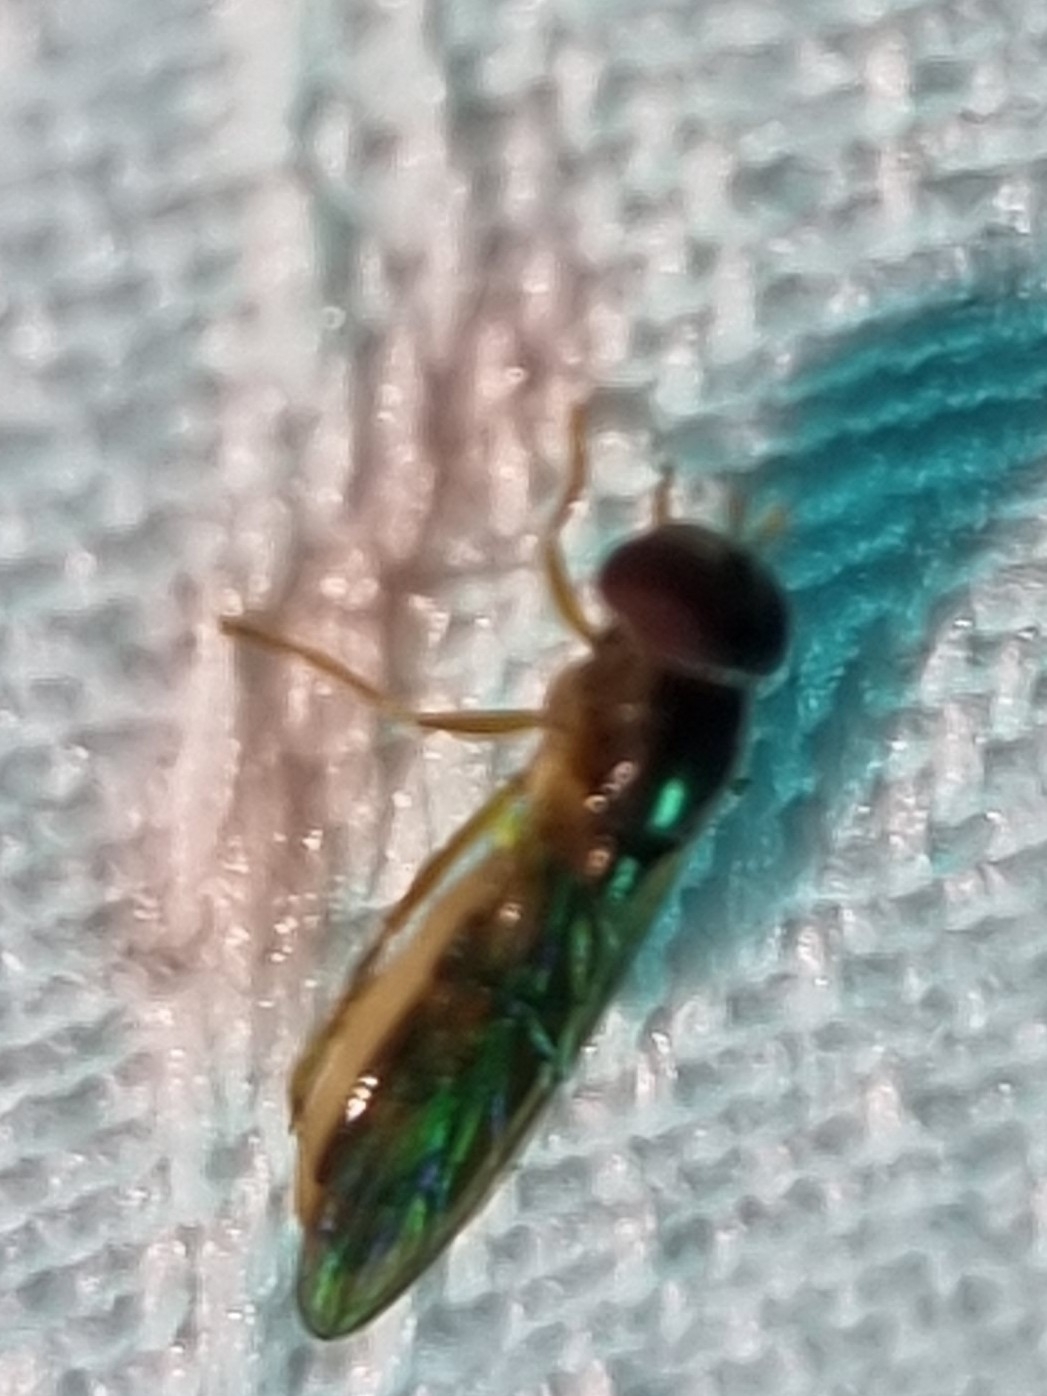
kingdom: Animalia
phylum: Arthropoda
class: Insecta
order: Diptera
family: Syrphidae
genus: Melanostoma
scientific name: Melanostoma apicale
